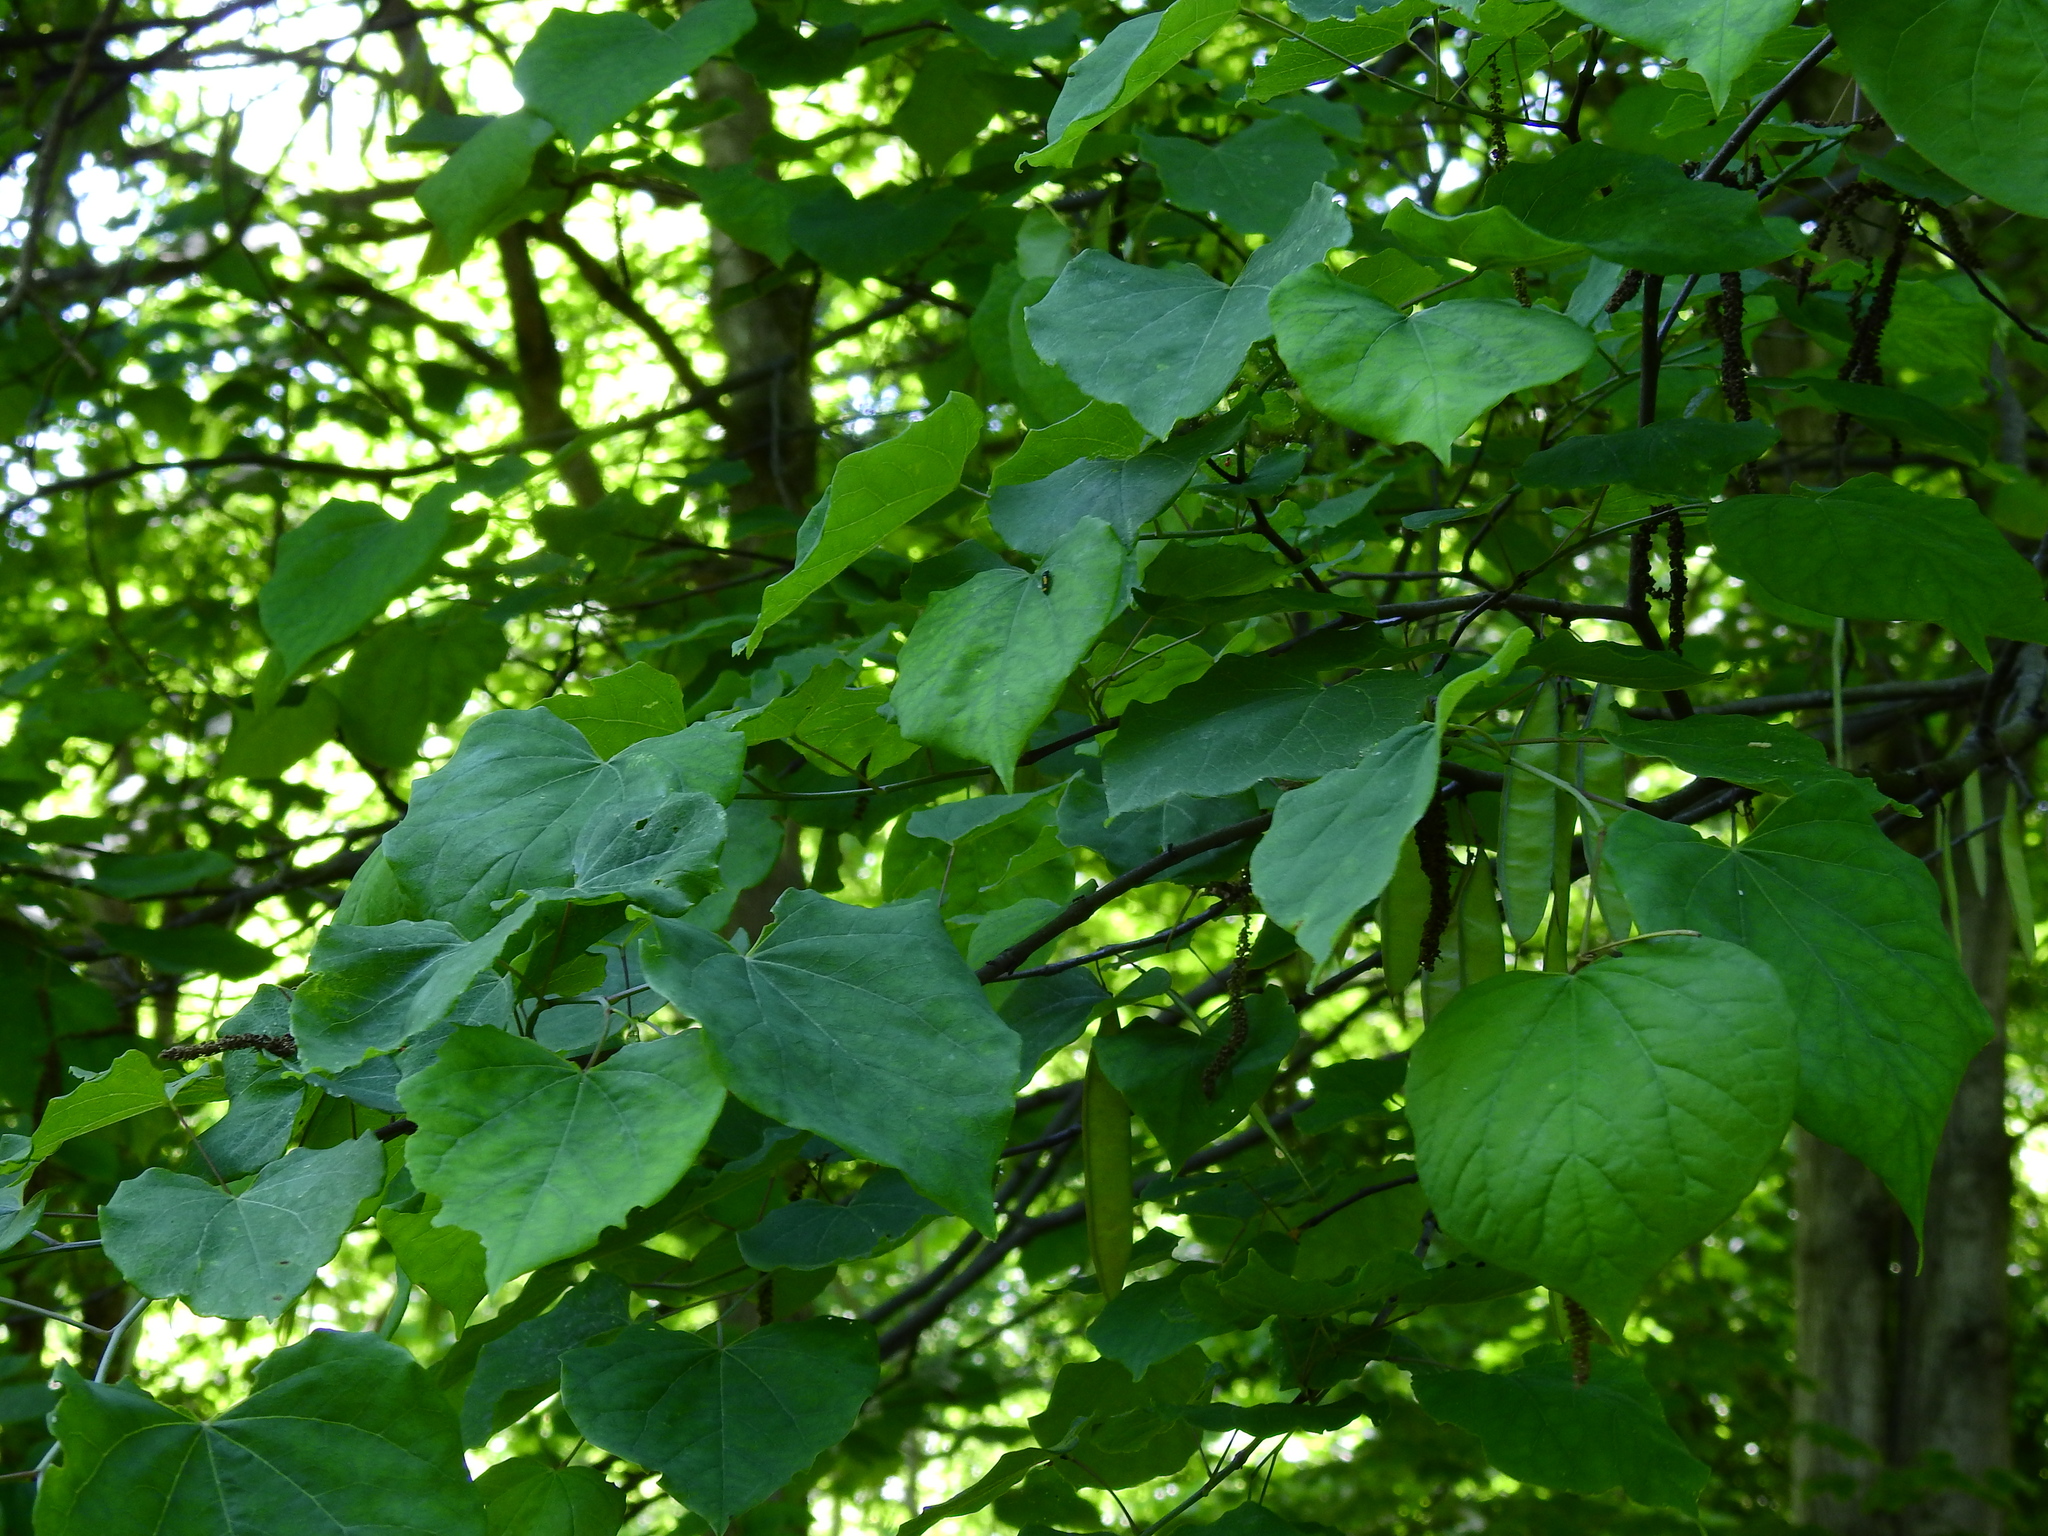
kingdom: Plantae
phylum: Tracheophyta
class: Magnoliopsida
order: Fabales
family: Fabaceae
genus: Cercis
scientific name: Cercis canadensis
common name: Eastern redbud
